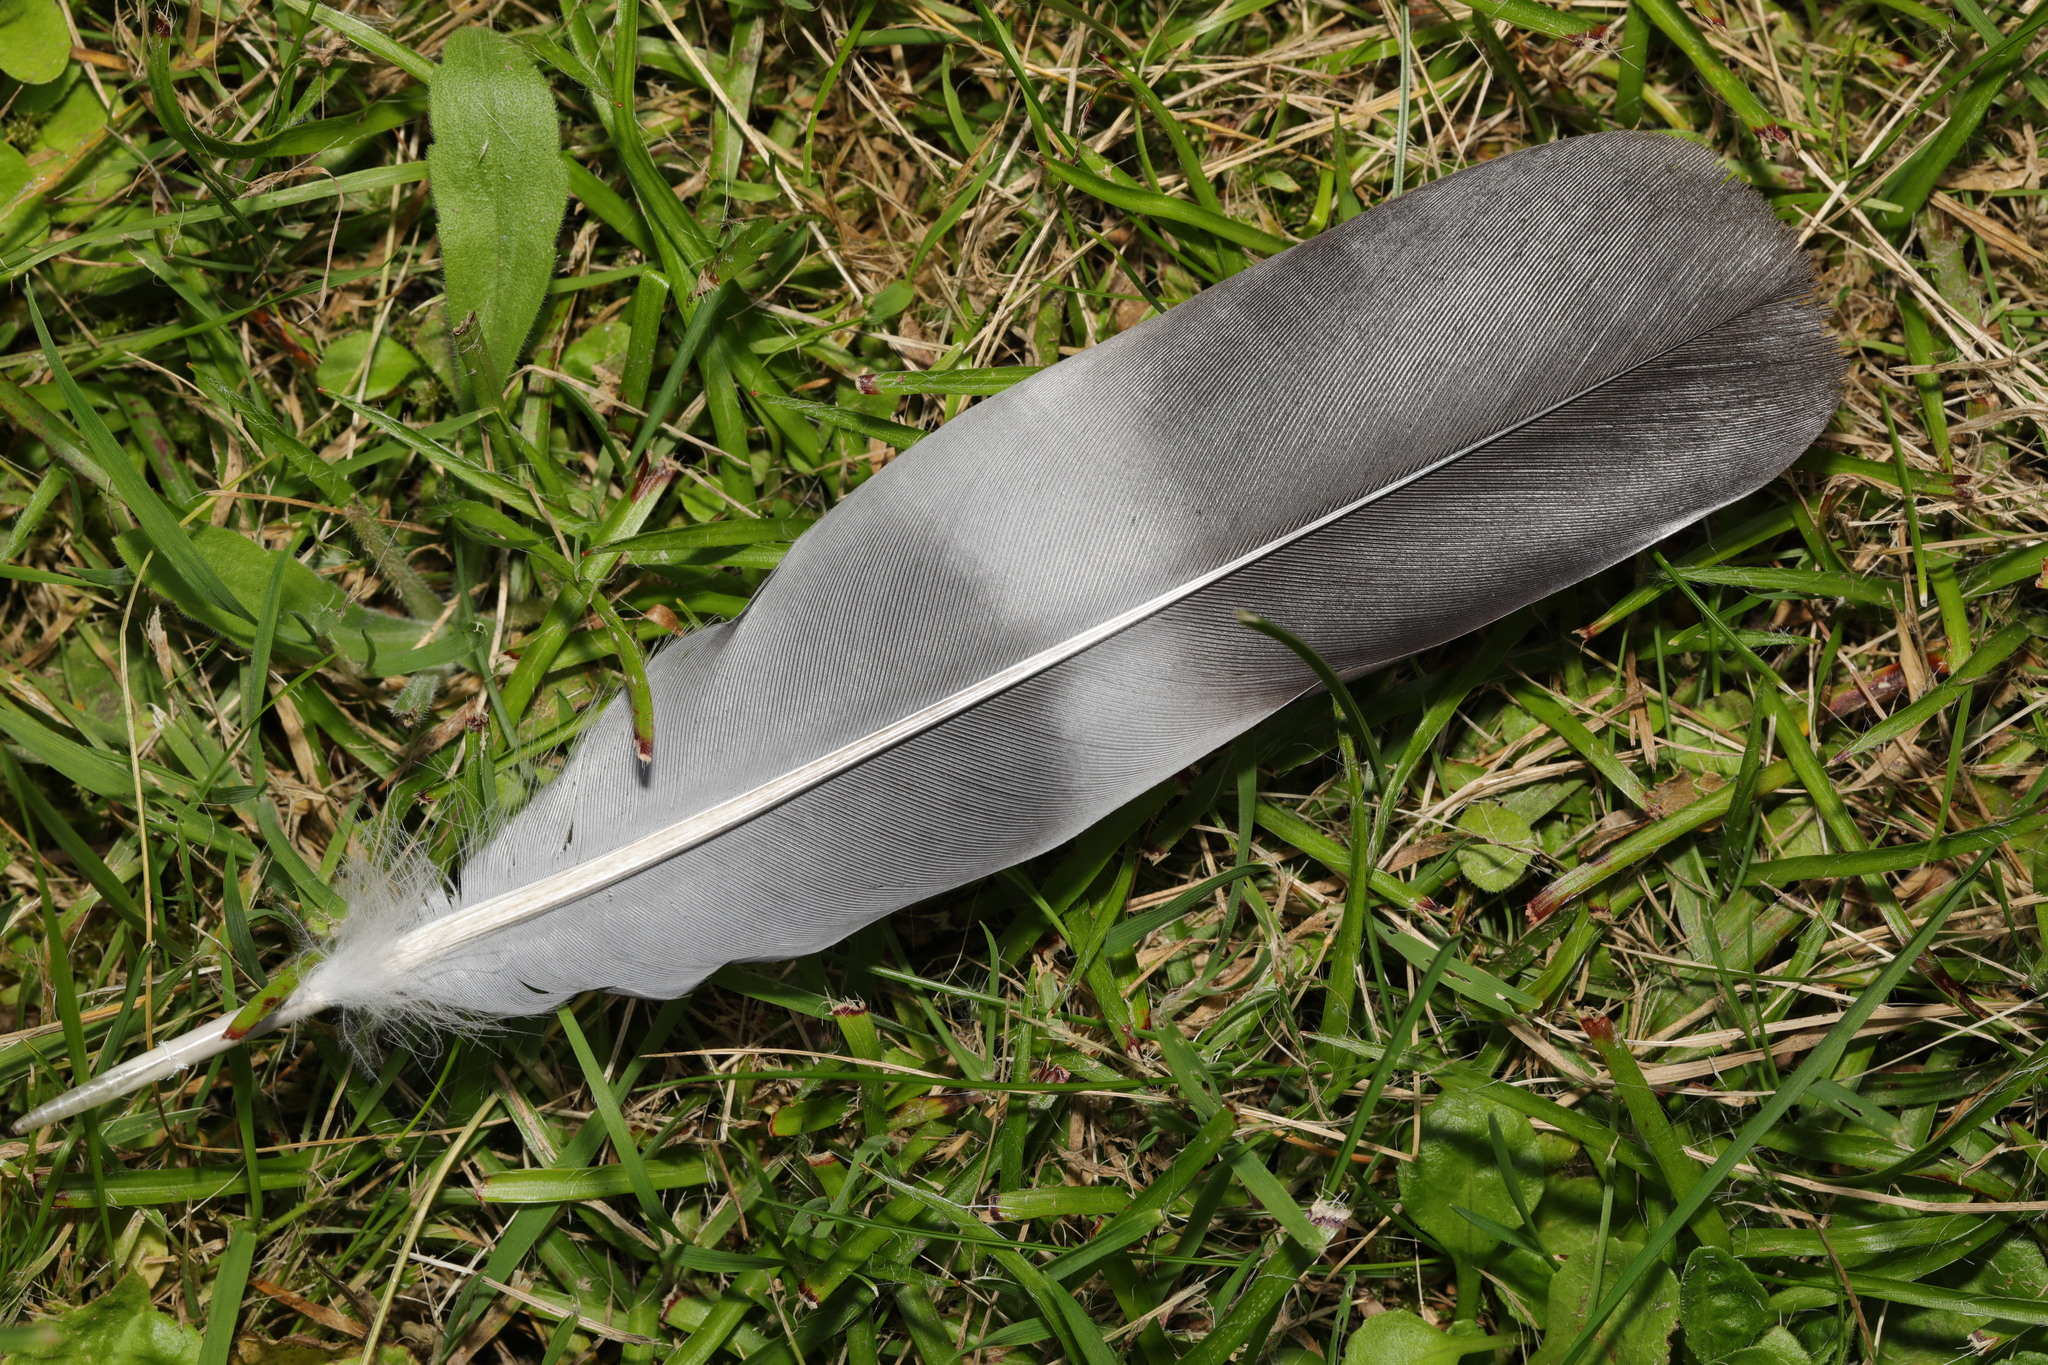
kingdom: Animalia
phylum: Chordata
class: Aves
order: Columbiformes
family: Columbidae
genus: Columba
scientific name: Columba palumbus
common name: Common wood pigeon
